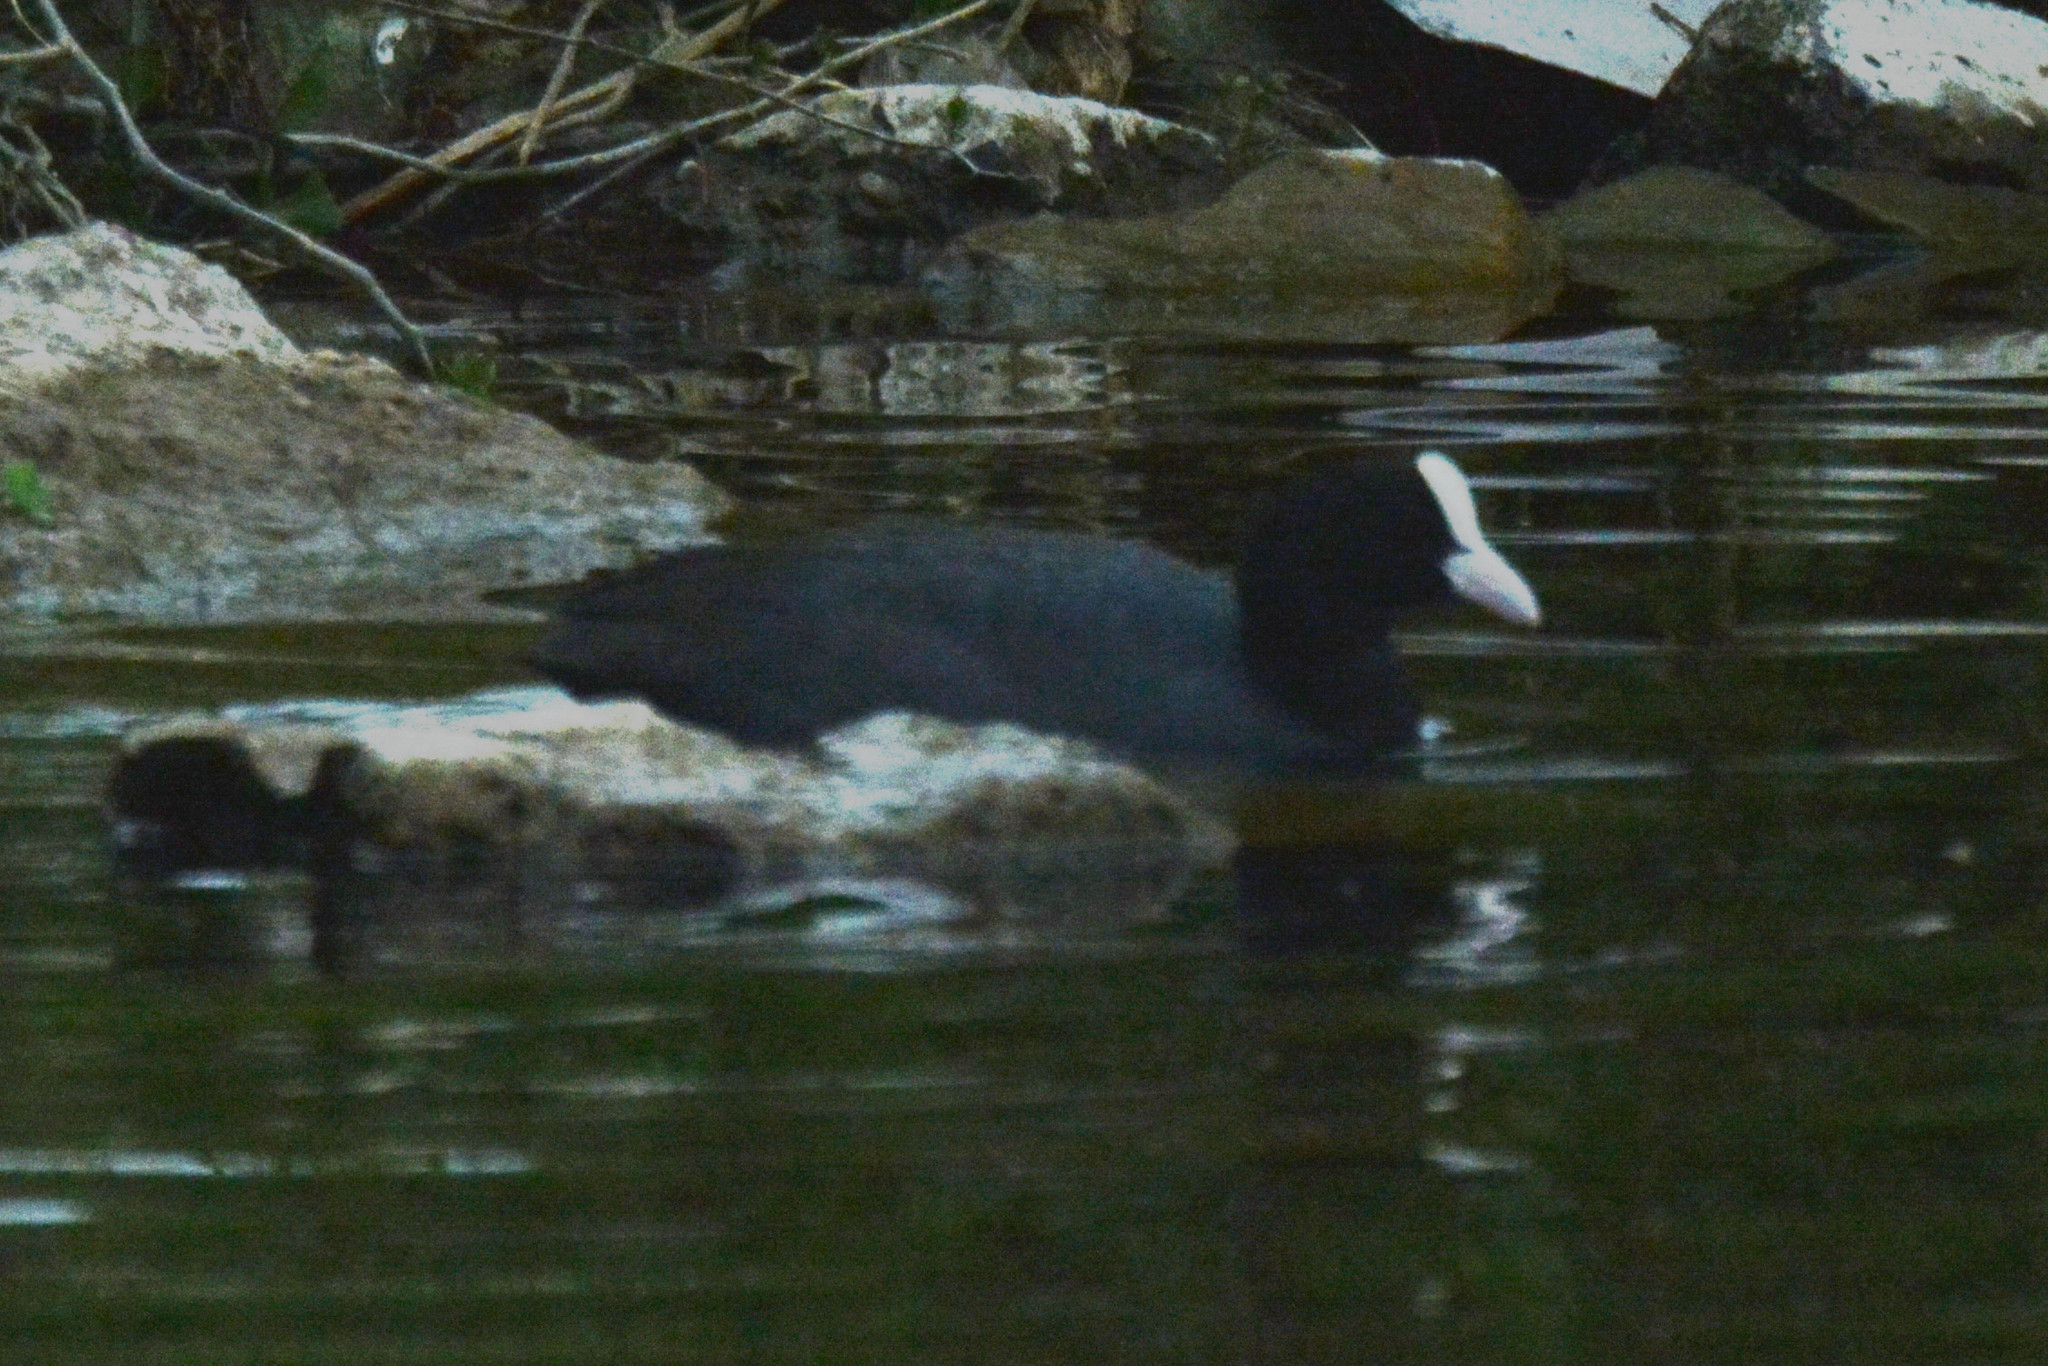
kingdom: Animalia
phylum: Chordata
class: Aves
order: Gruiformes
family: Rallidae
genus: Fulica
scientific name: Fulica atra
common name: Eurasian coot
